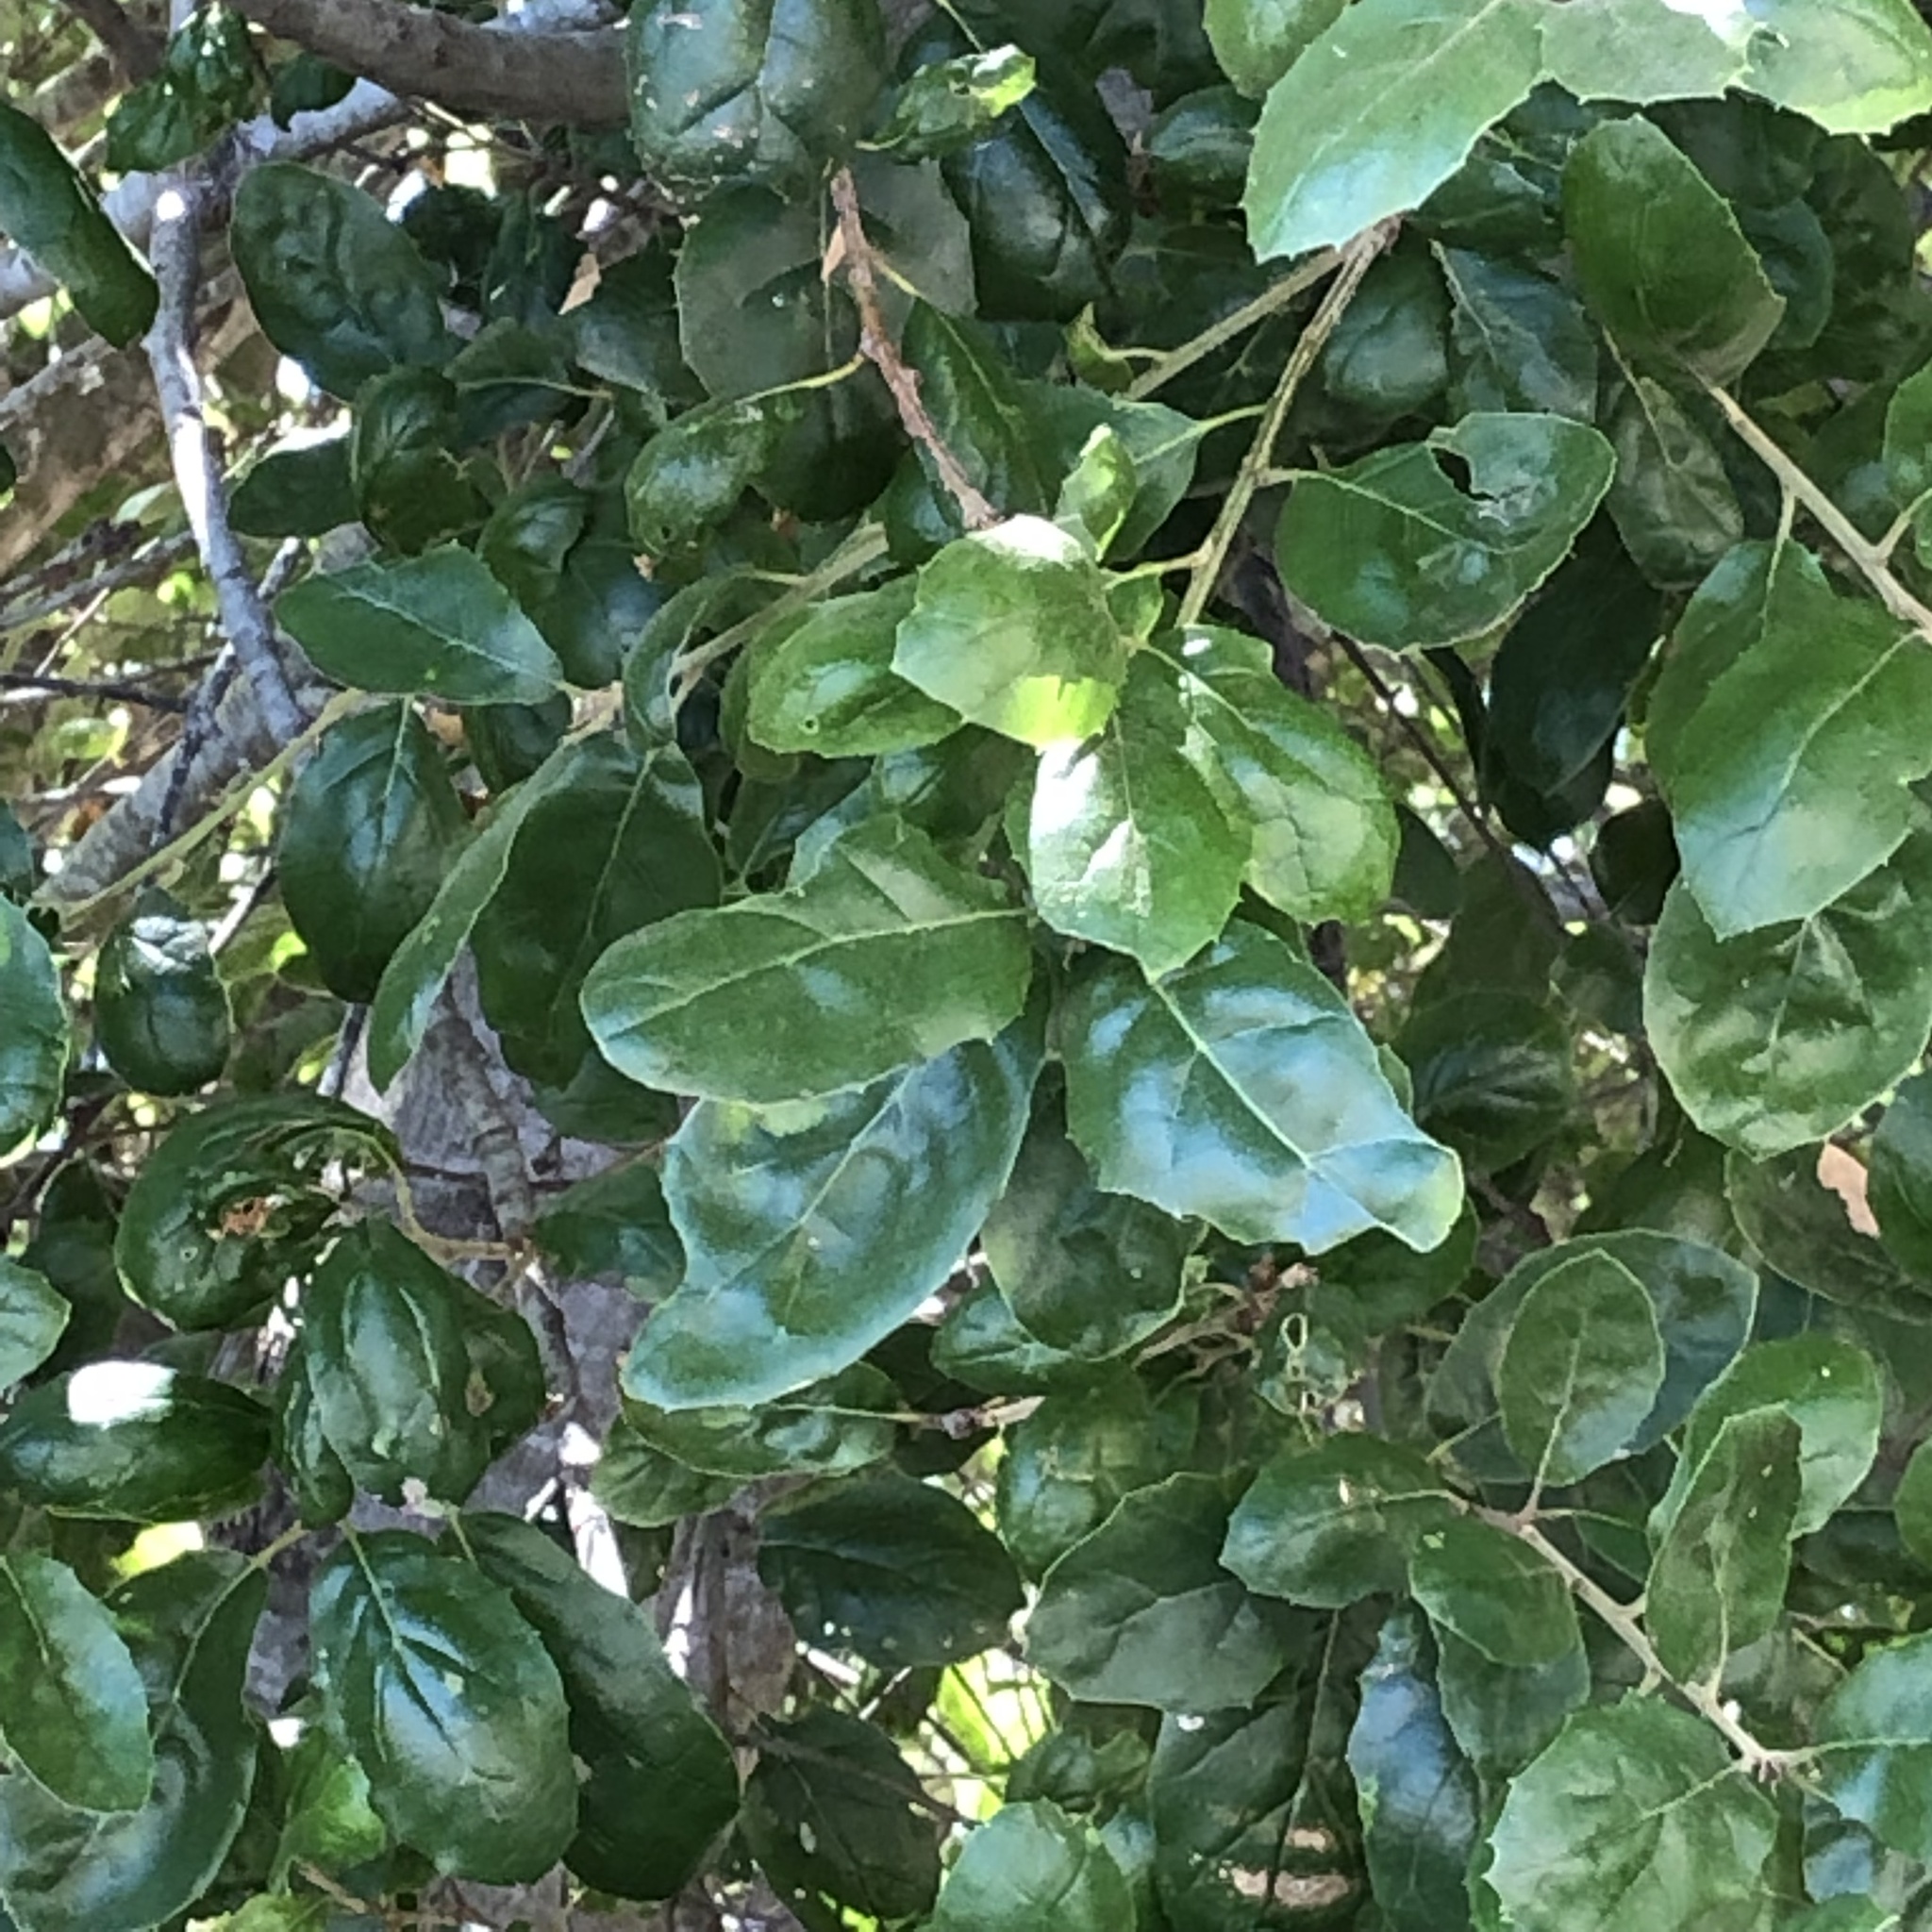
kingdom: Plantae
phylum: Tracheophyta
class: Magnoliopsida
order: Fagales
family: Fagaceae
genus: Quercus
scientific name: Quercus agrifolia
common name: California live oak
